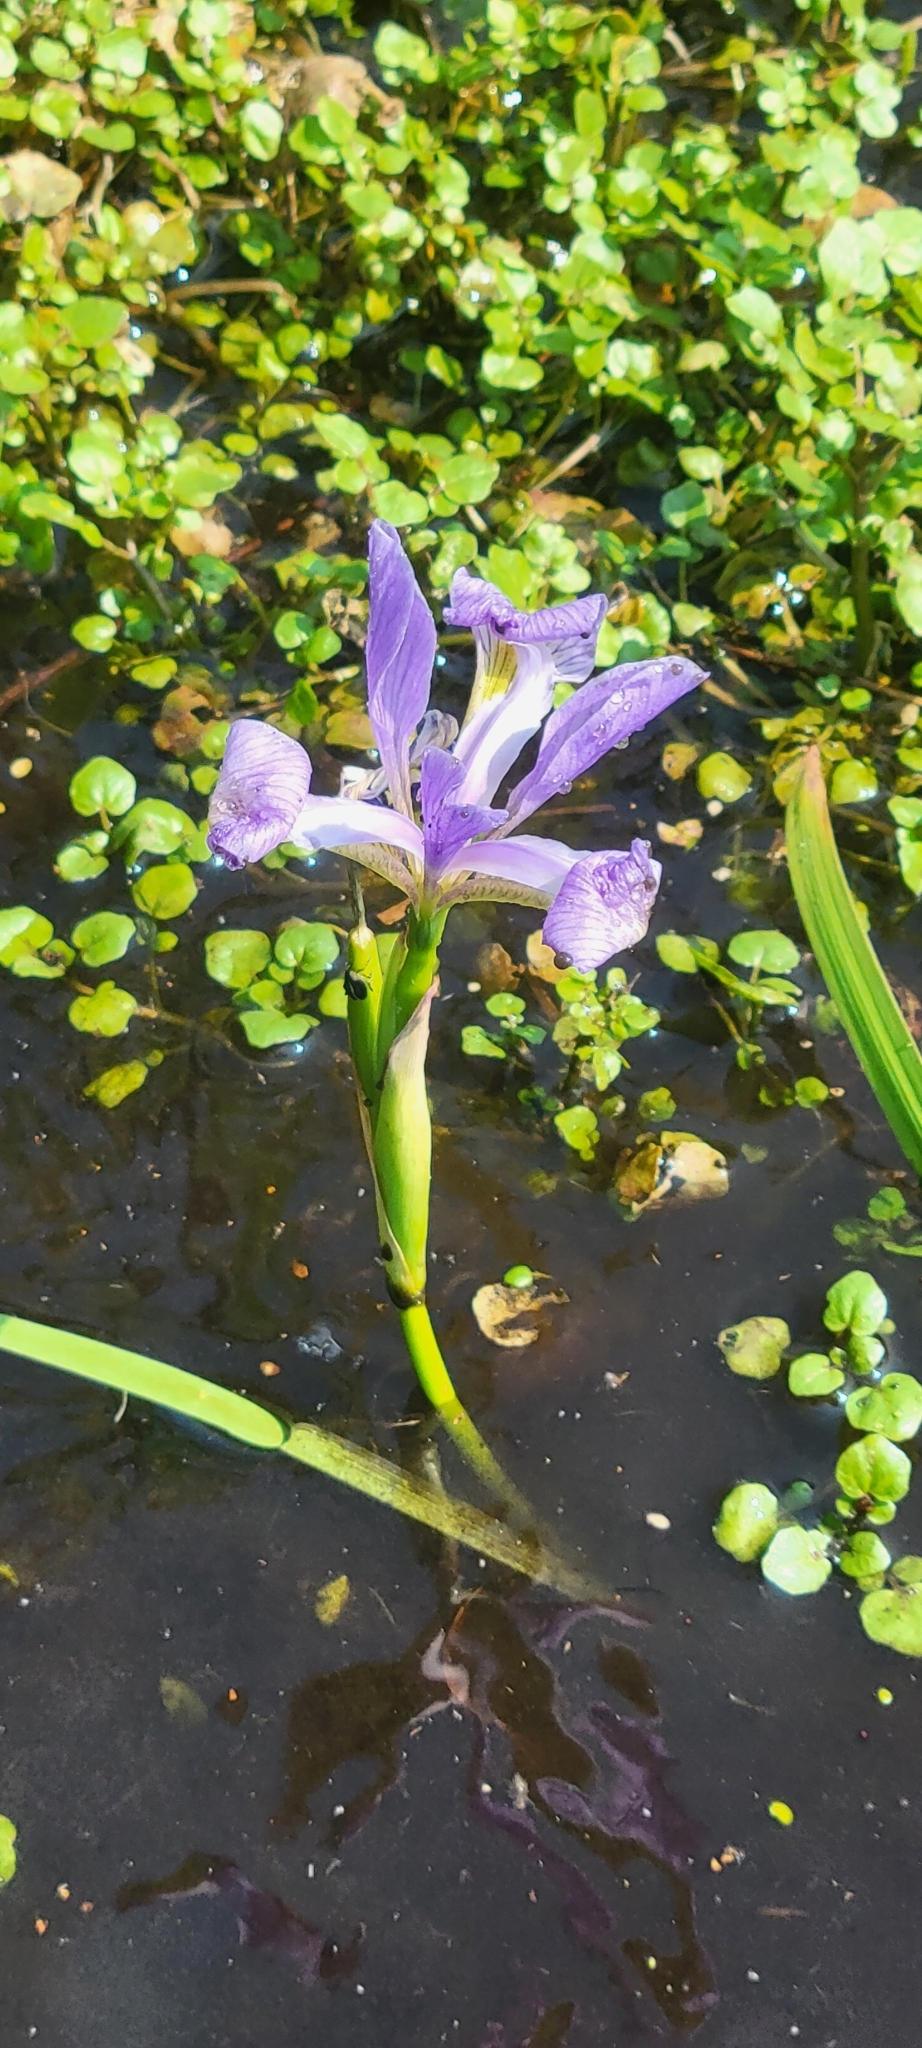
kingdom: Plantae
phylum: Tracheophyta
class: Liliopsida
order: Asparagales
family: Iridaceae
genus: Iris
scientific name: Iris virginica
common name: Southern blue flag
